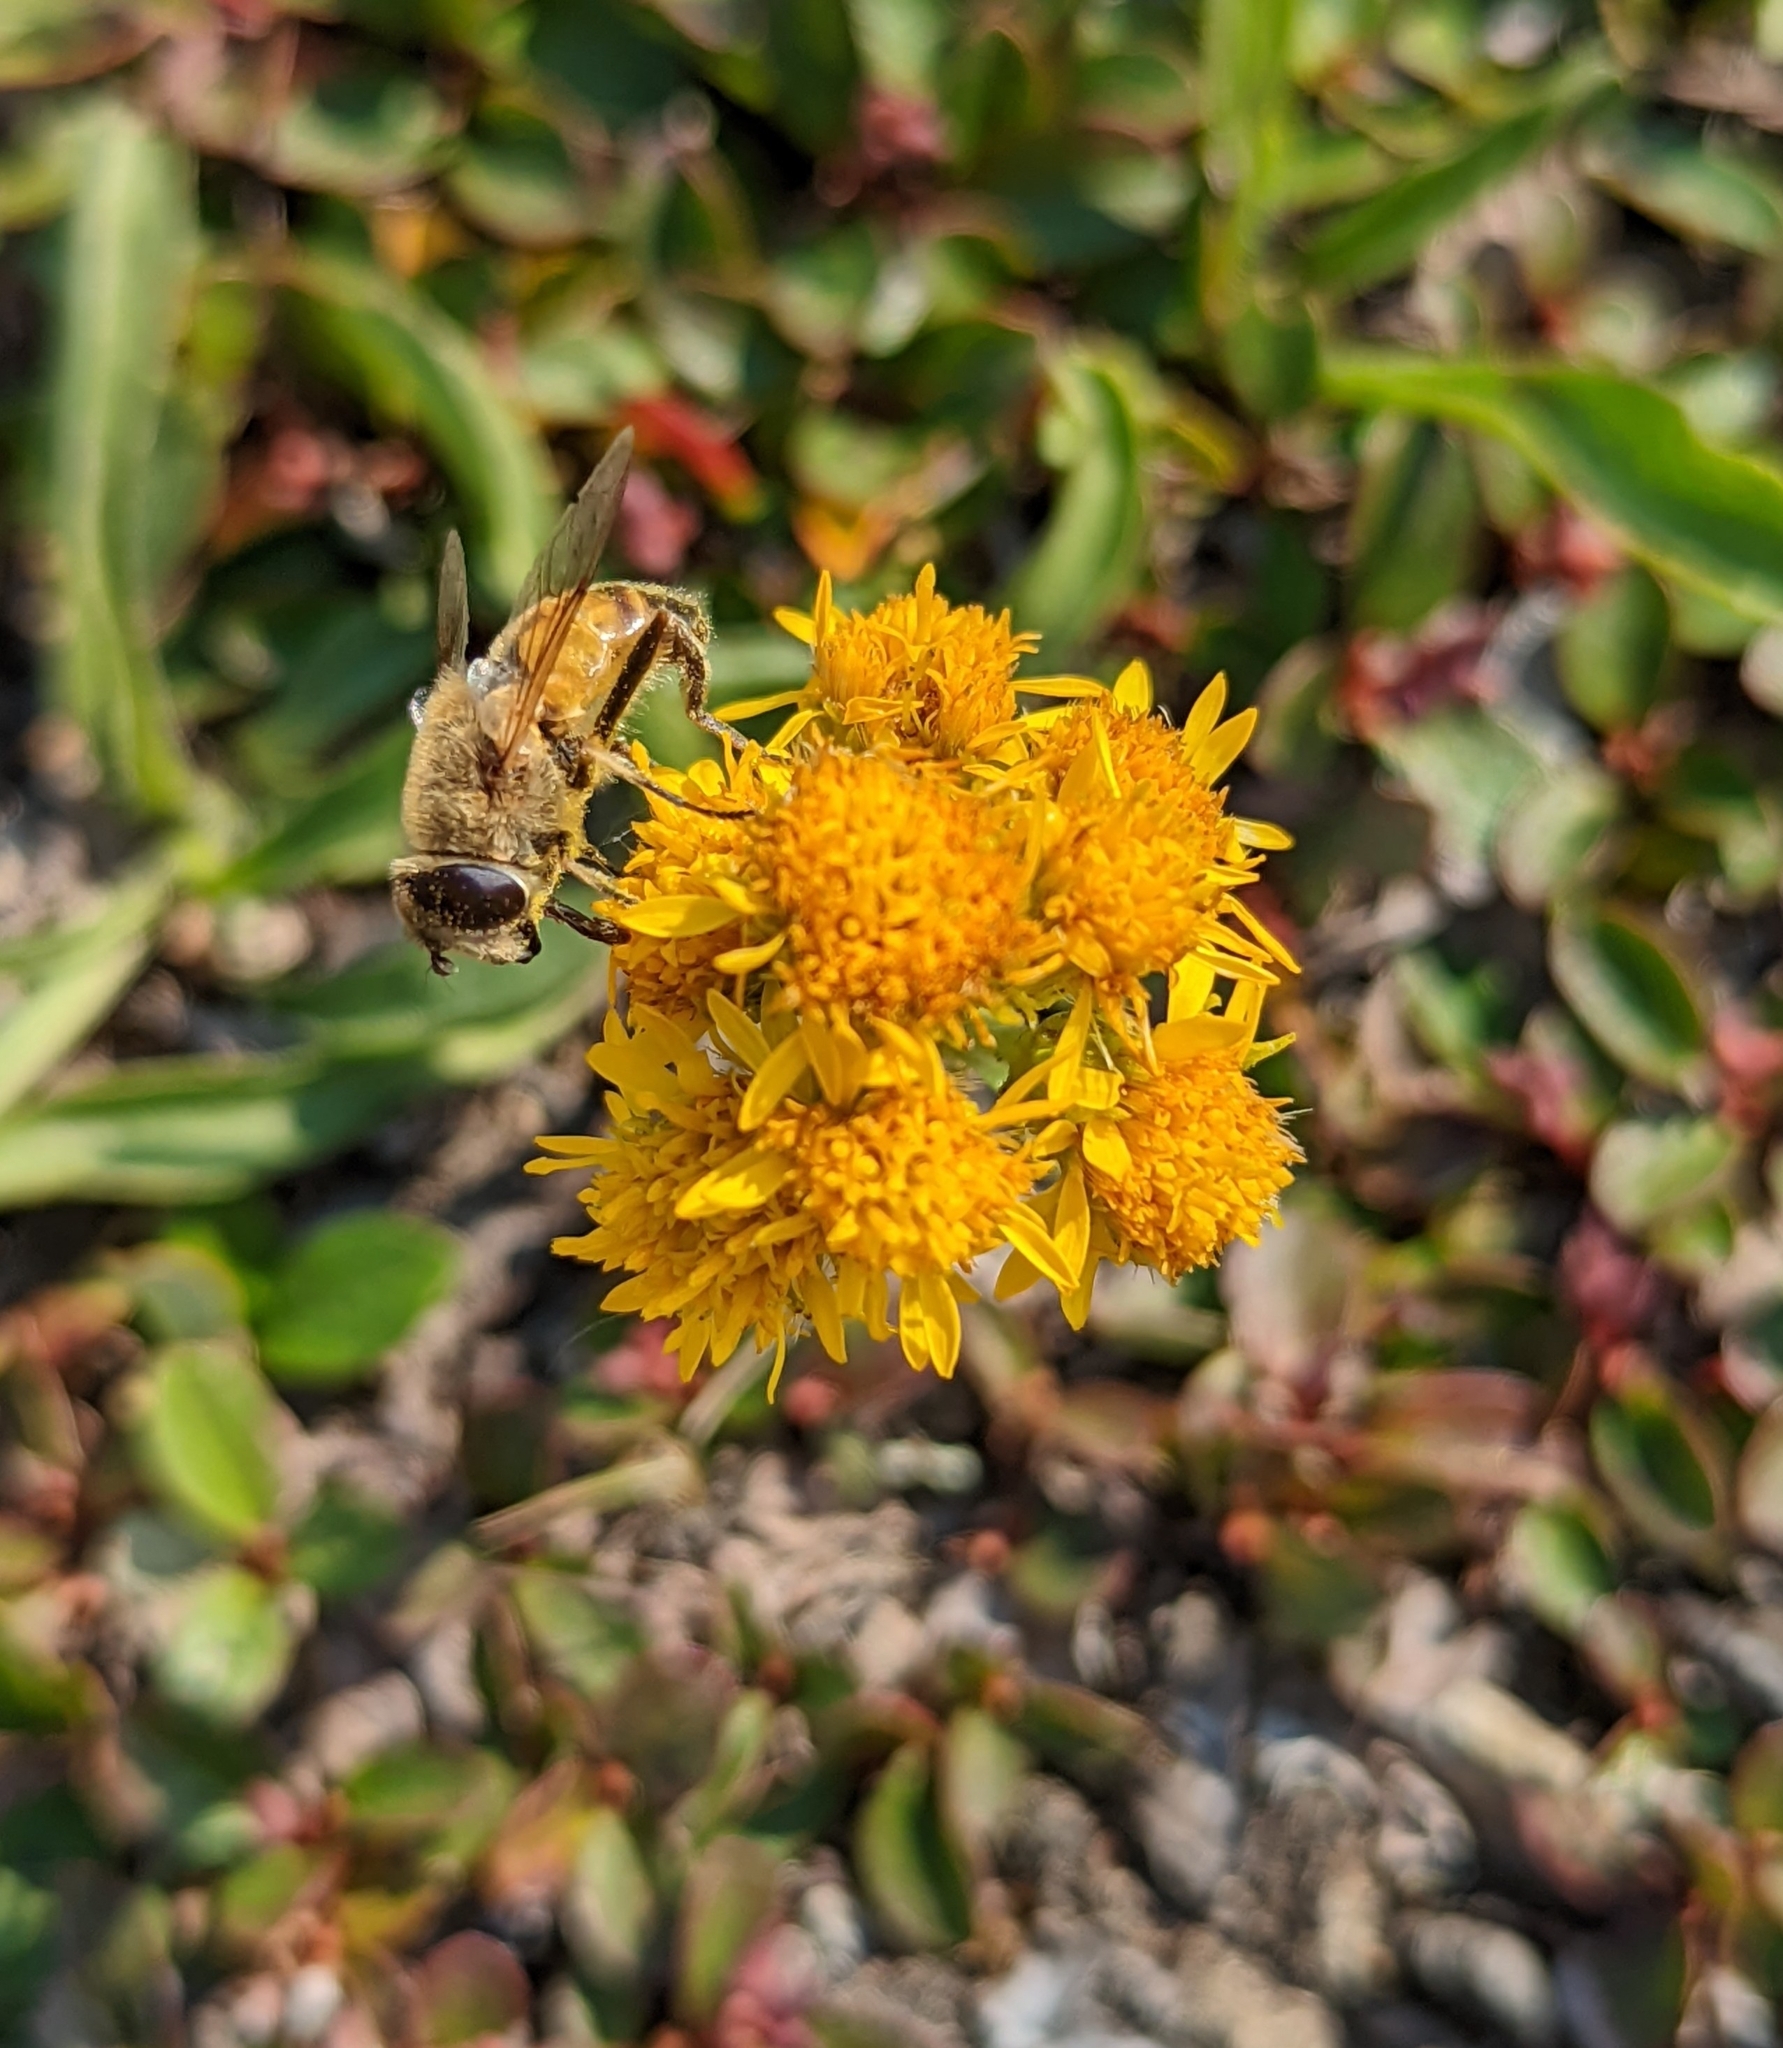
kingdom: Plantae
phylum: Tracheophyta
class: Magnoliopsida
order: Asterales
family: Asteraceae
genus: Solidago
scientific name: Solidago multiradiata
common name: Northern goldenrod
